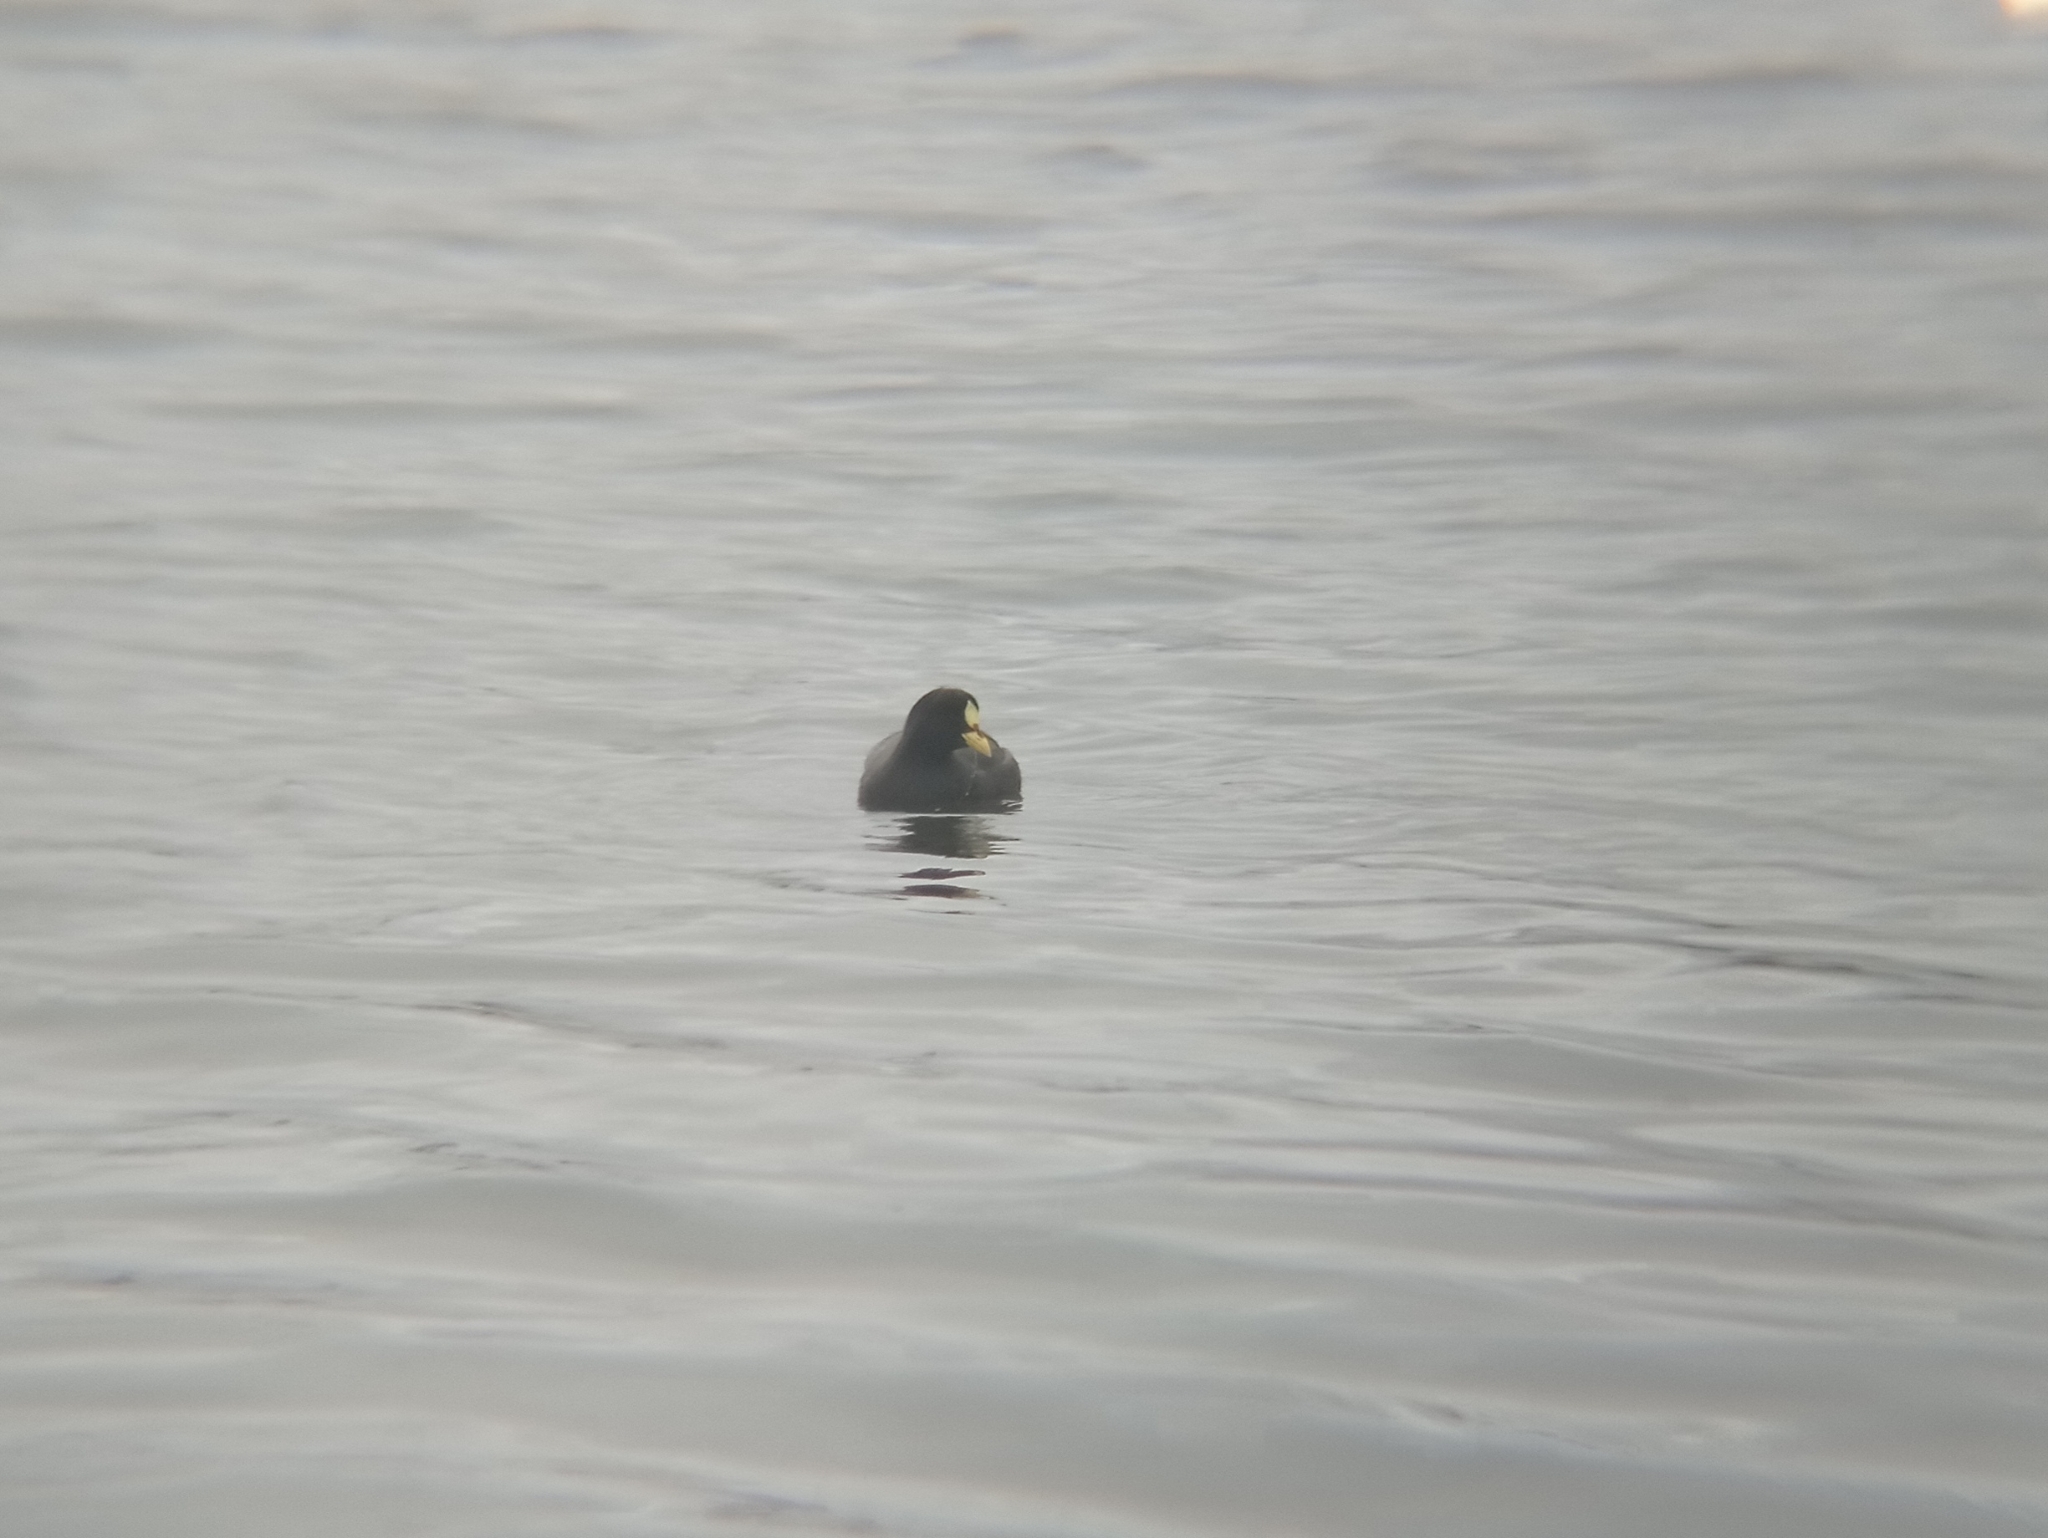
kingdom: Animalia
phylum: Chordata
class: Aves
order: Gruiformes
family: Rallidae
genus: Fulica
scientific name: Fulica armillata
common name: Red-gartered coot
